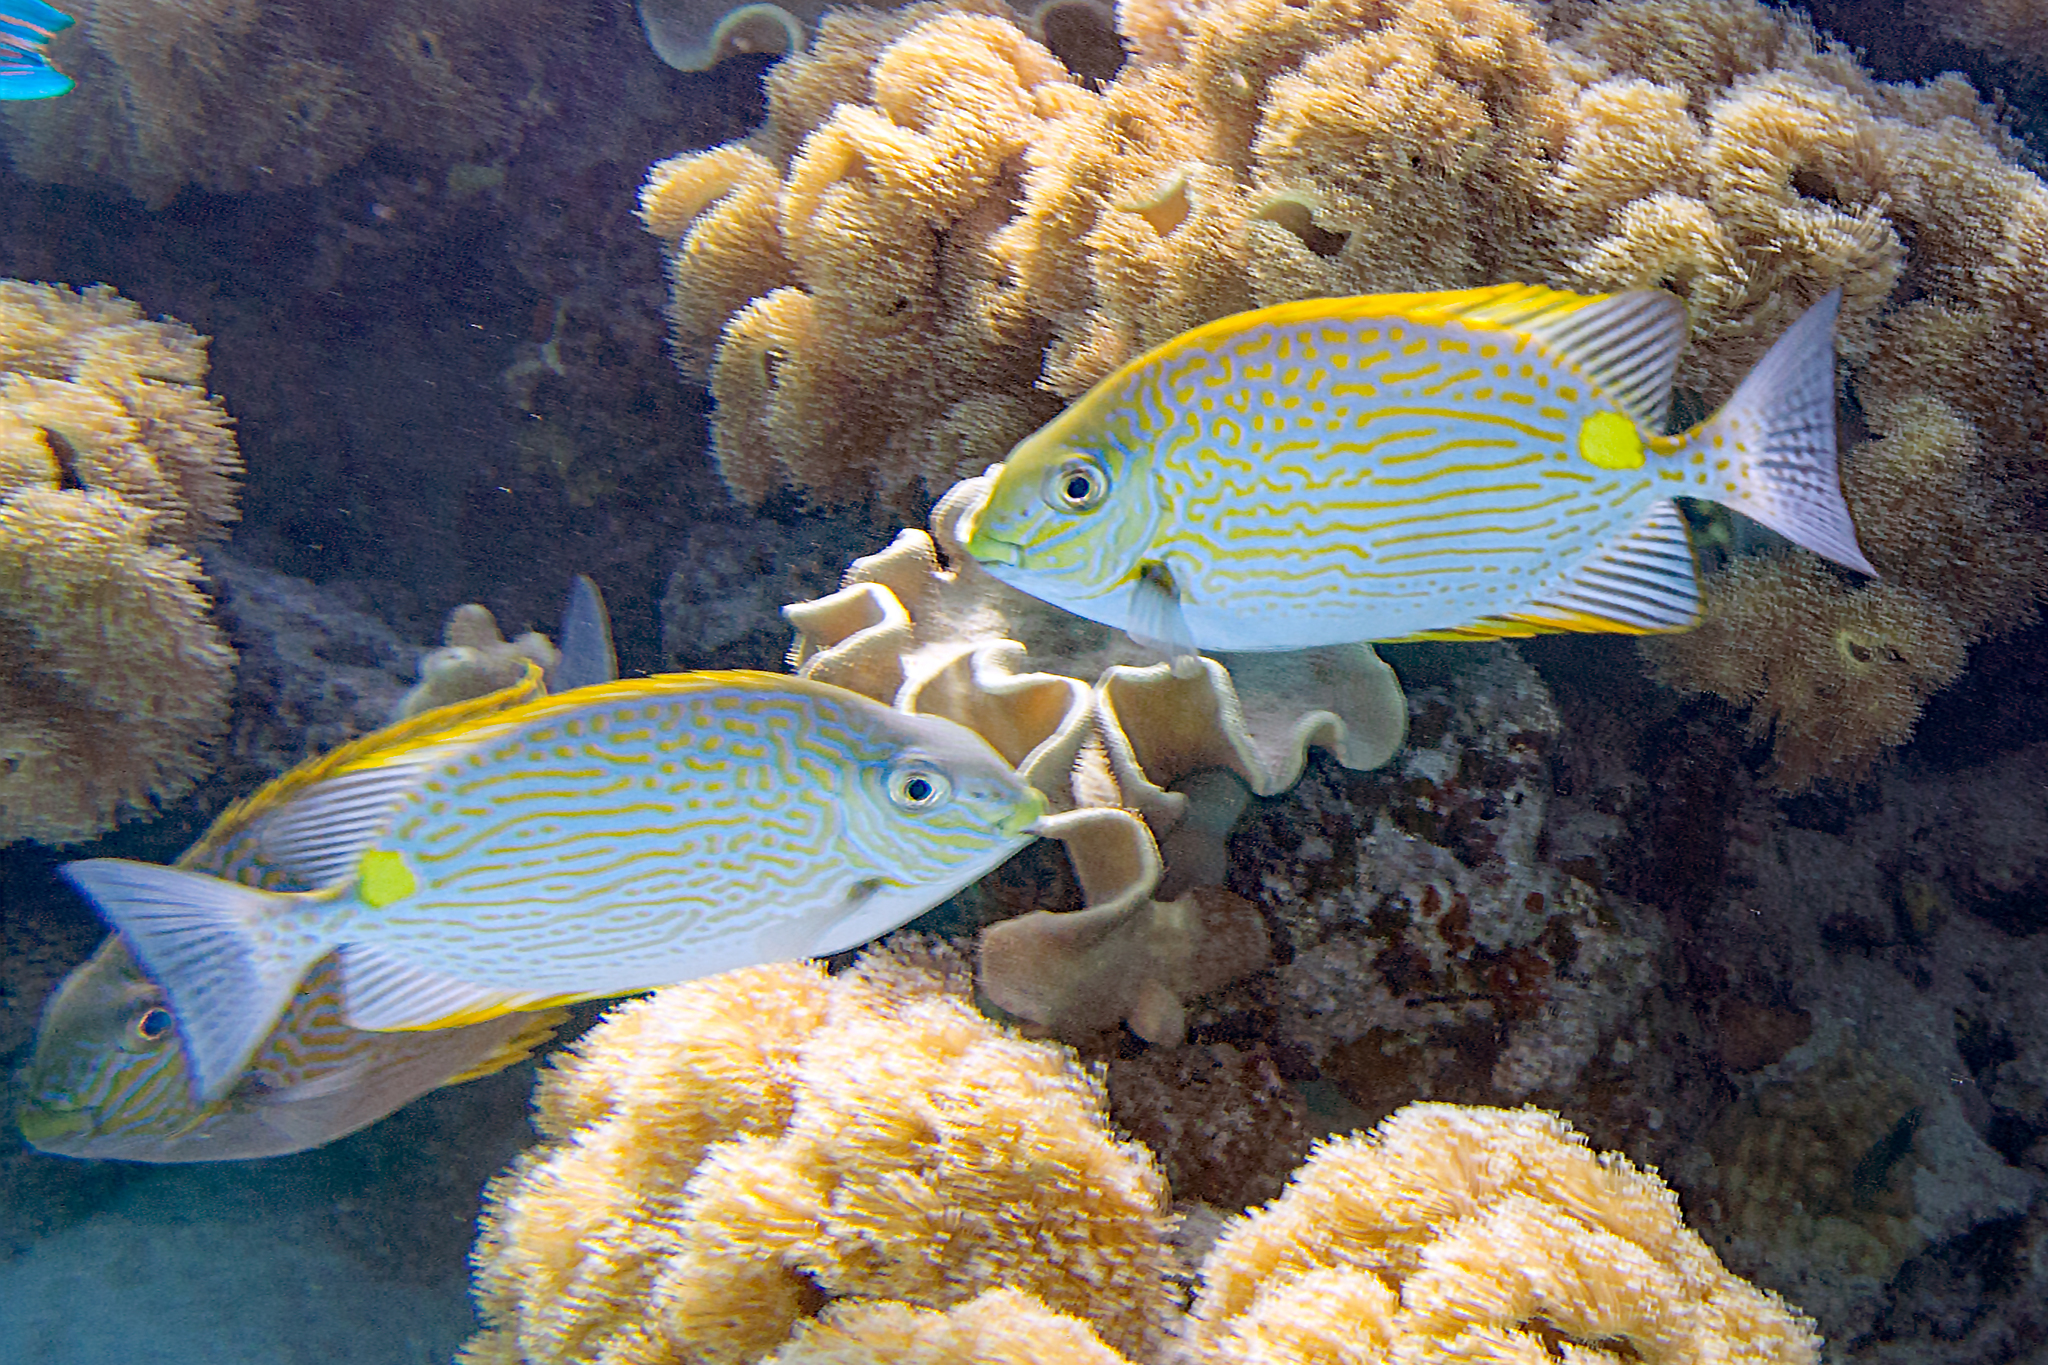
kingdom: Animalia
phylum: Chordata
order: Perciformes
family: Siganidae
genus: Siganus
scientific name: Siganus lineatus
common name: Lined rabbitfish
